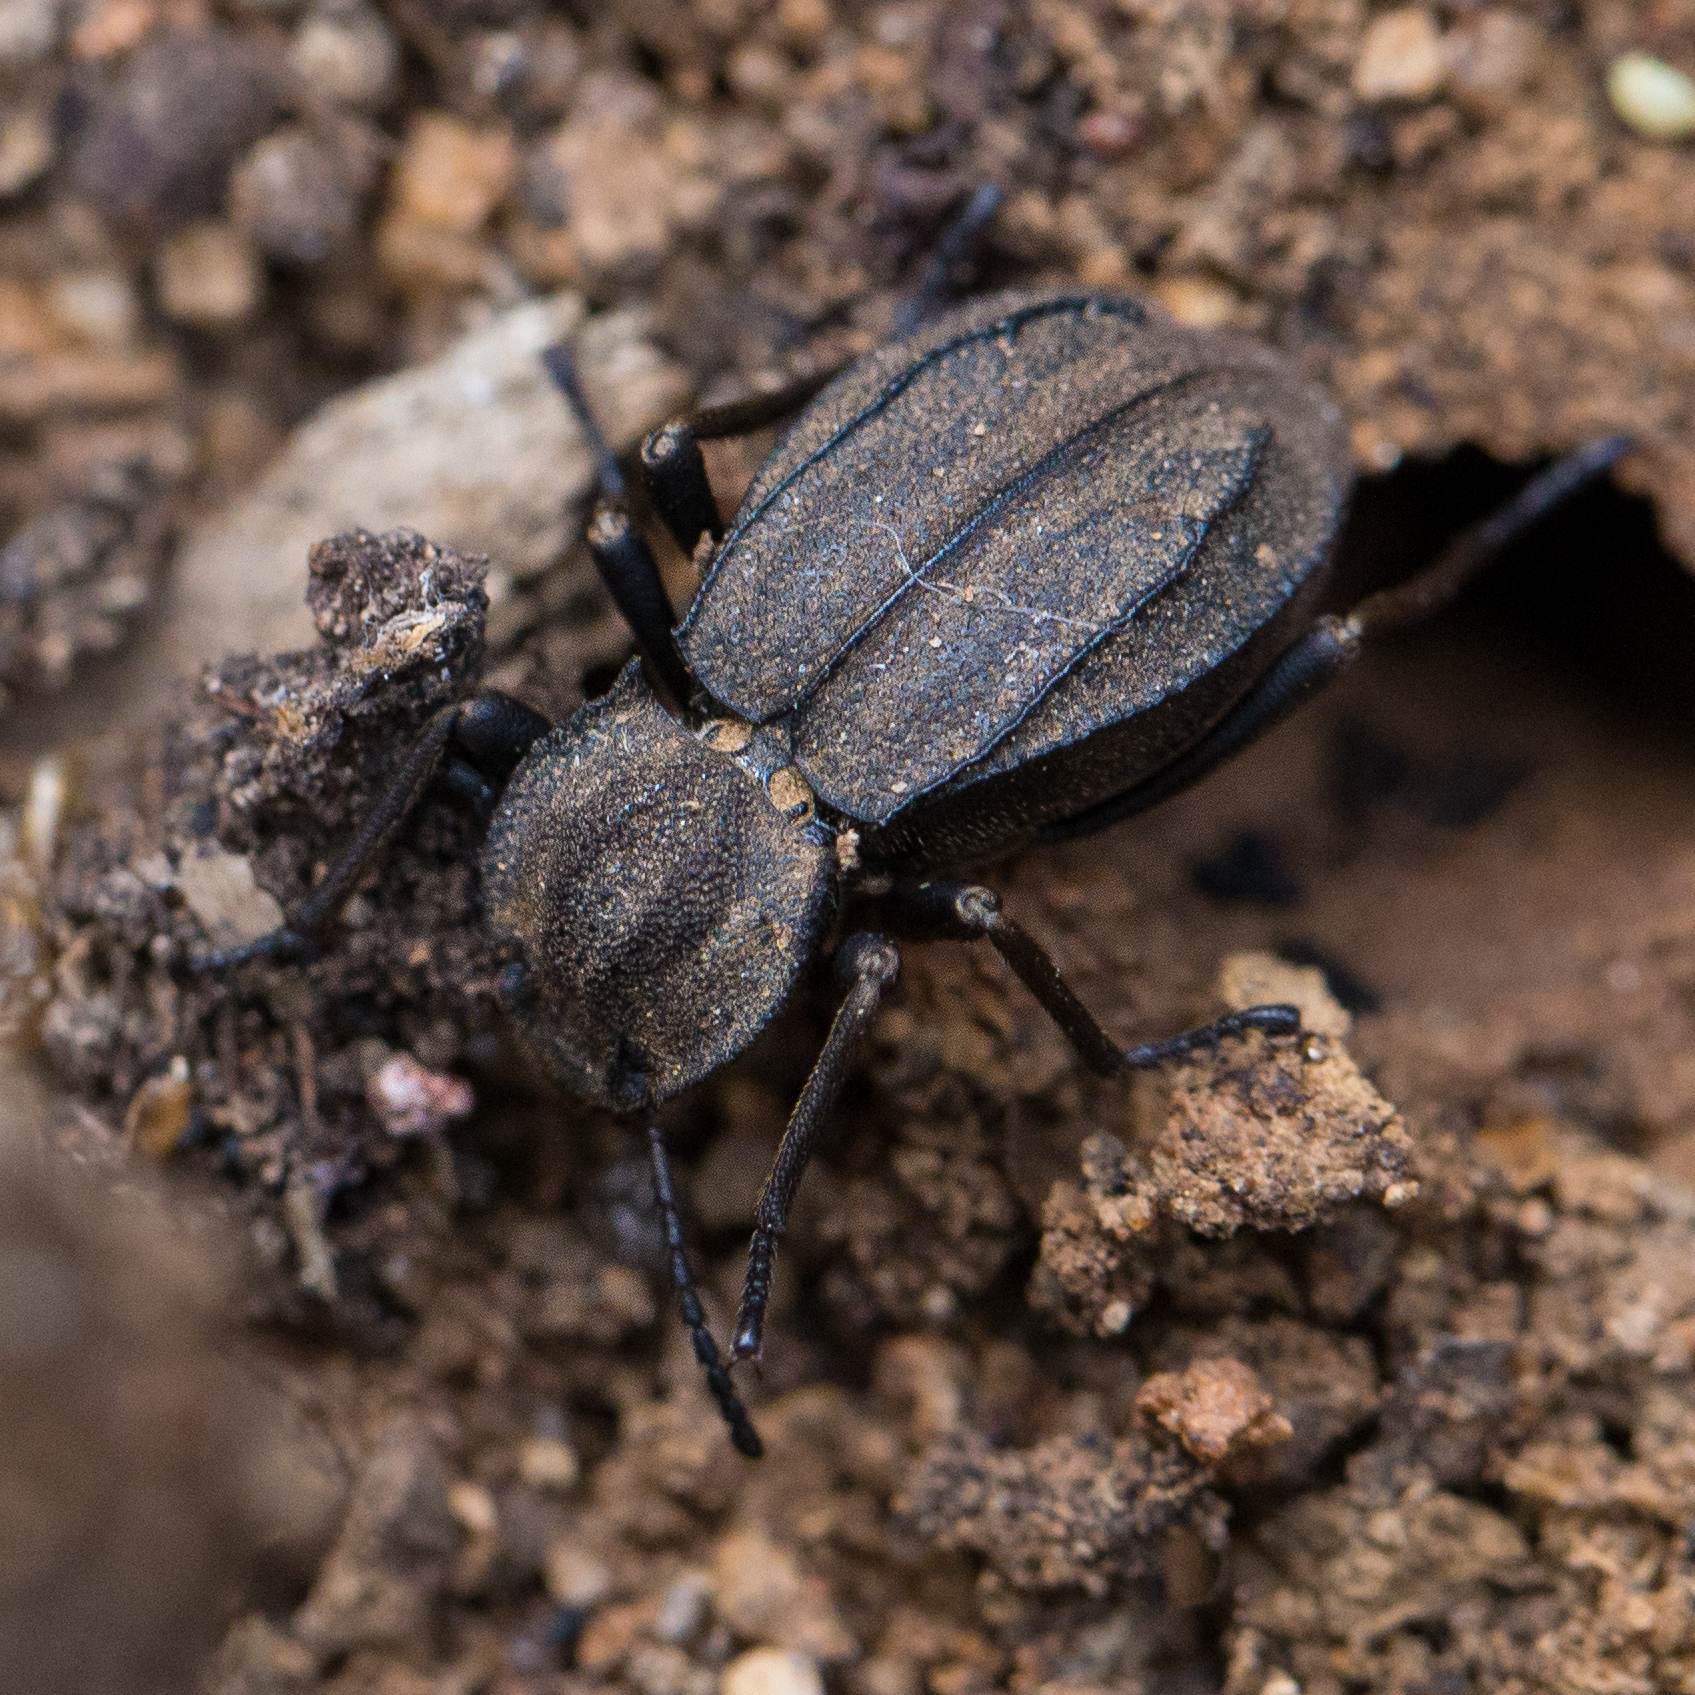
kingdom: Animalia
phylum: Arthropoda
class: Insecta
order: Coleoptera
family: Tenebrionidae
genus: Heterasida
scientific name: Heterasida connivens
